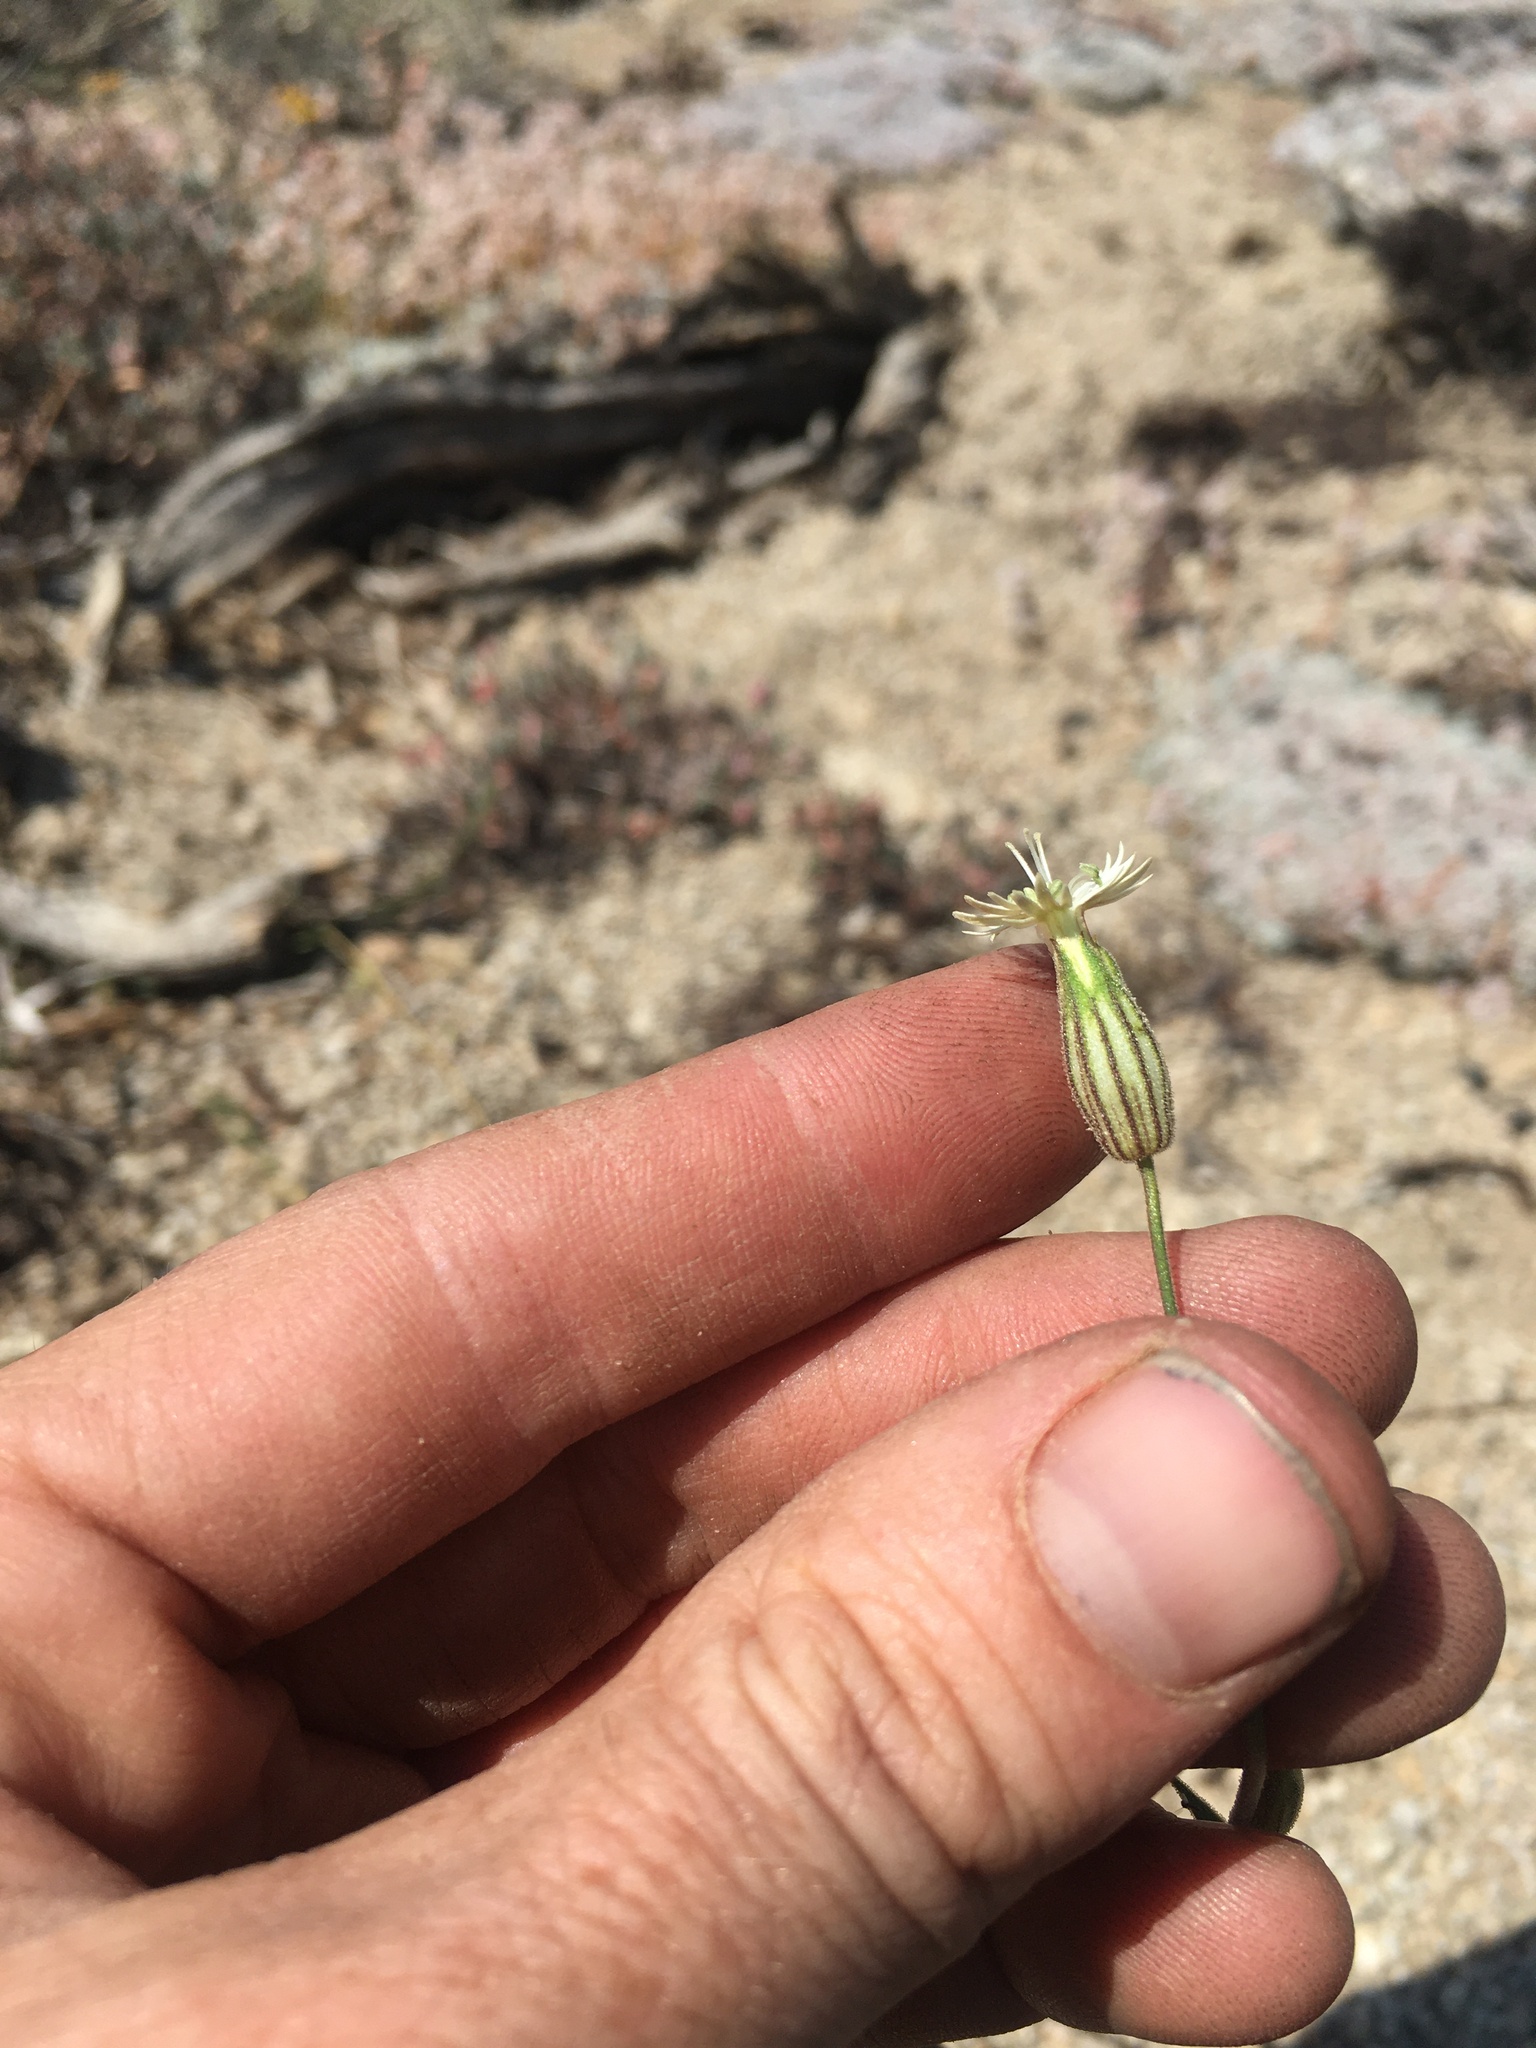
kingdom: Plantae
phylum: Tracheophyta
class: Magnoliopsida
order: Caryophyllales
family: Caryophyllaceae
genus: Silene
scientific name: Silene bernardina
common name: Palmer's catchfly
